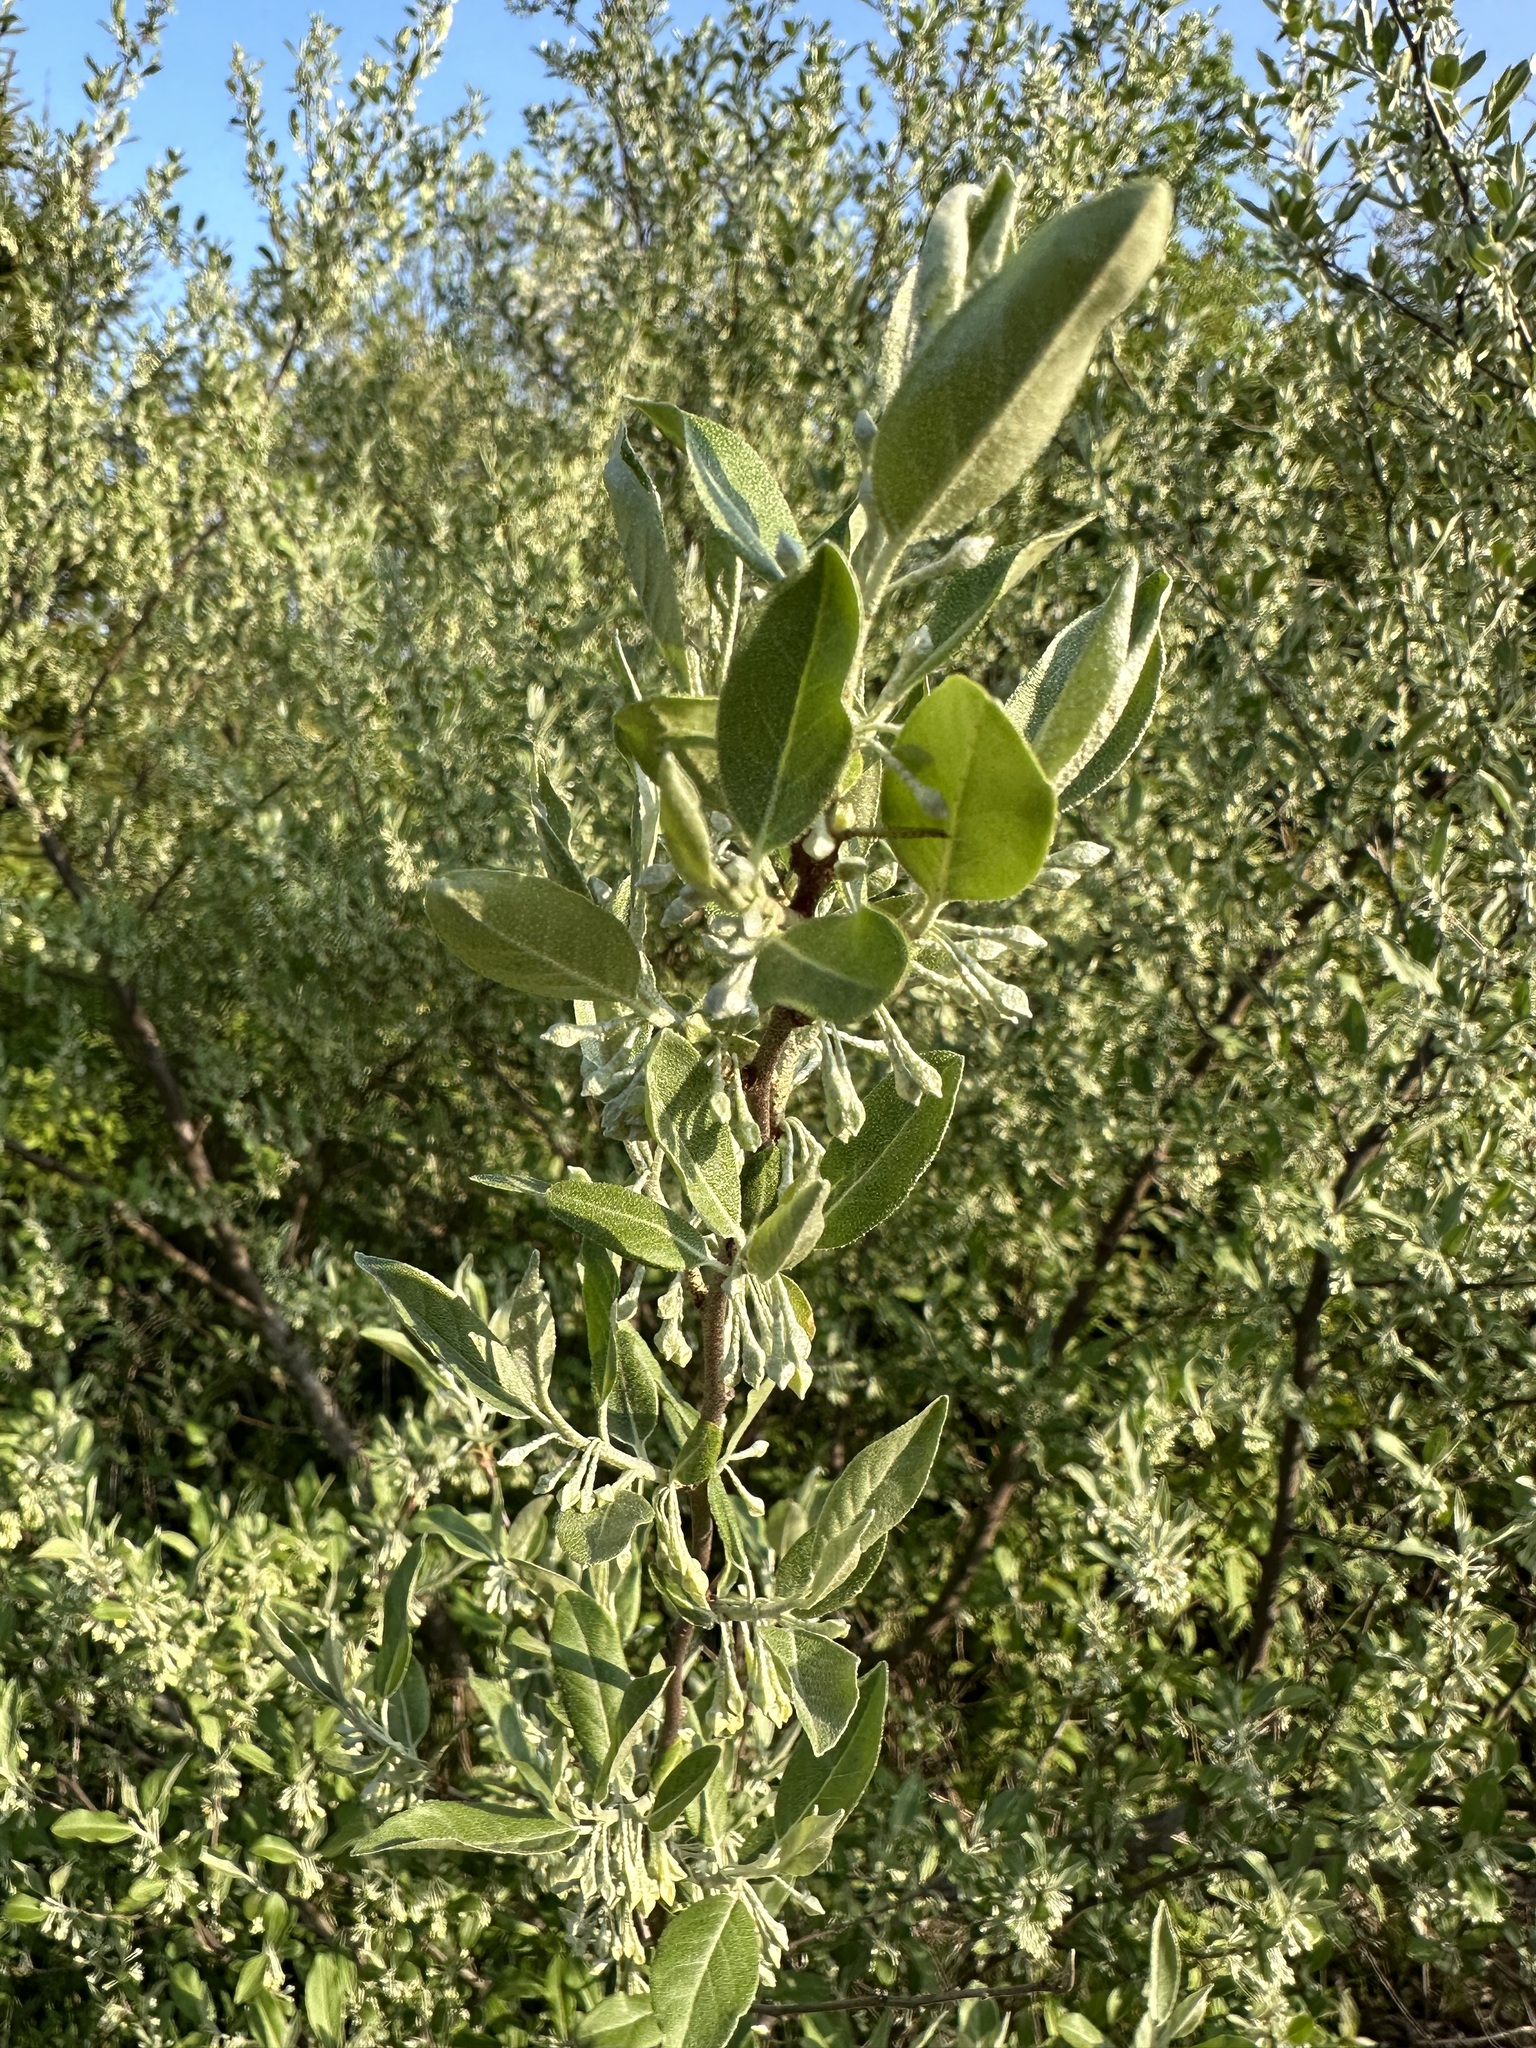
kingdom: Plantae
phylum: Tracheophyta
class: Magnoliopsida
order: Rosales
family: Elaeagnaceae
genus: Elaeagnus
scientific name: Elaeagnus umbellata
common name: Autumn olive
